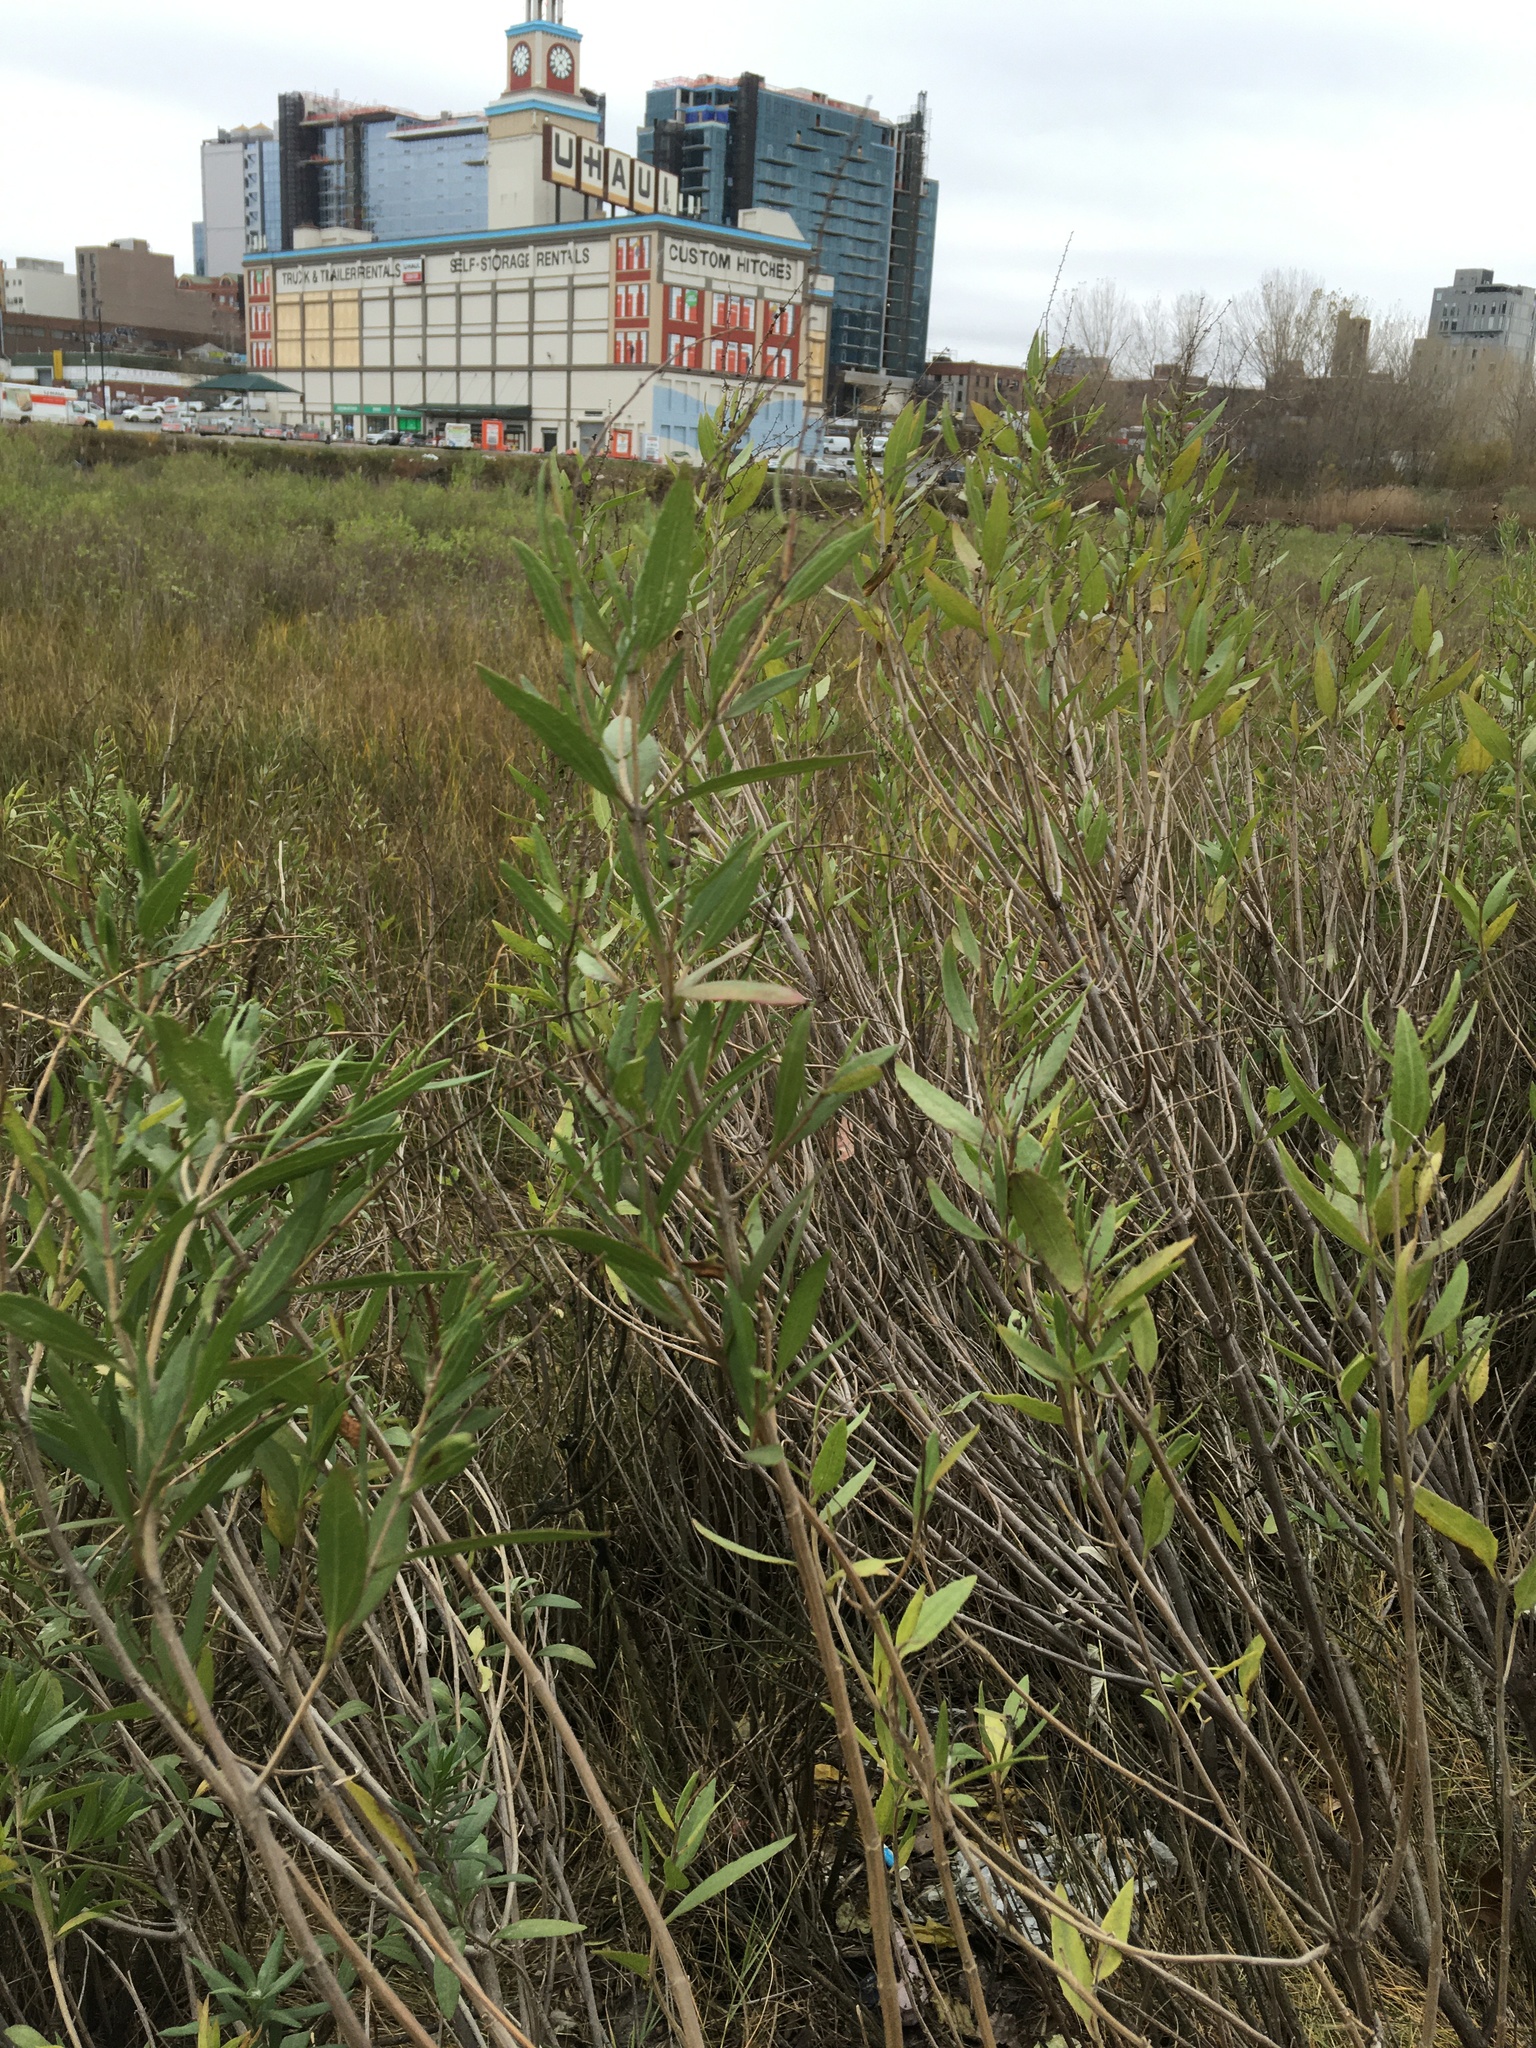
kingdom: Plantae
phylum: Tracheophyta
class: Magnoliopsida
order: Asterales
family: Asteraceae
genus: Iva
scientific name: Iva frutescens
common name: Big-leaved marsh-elder
